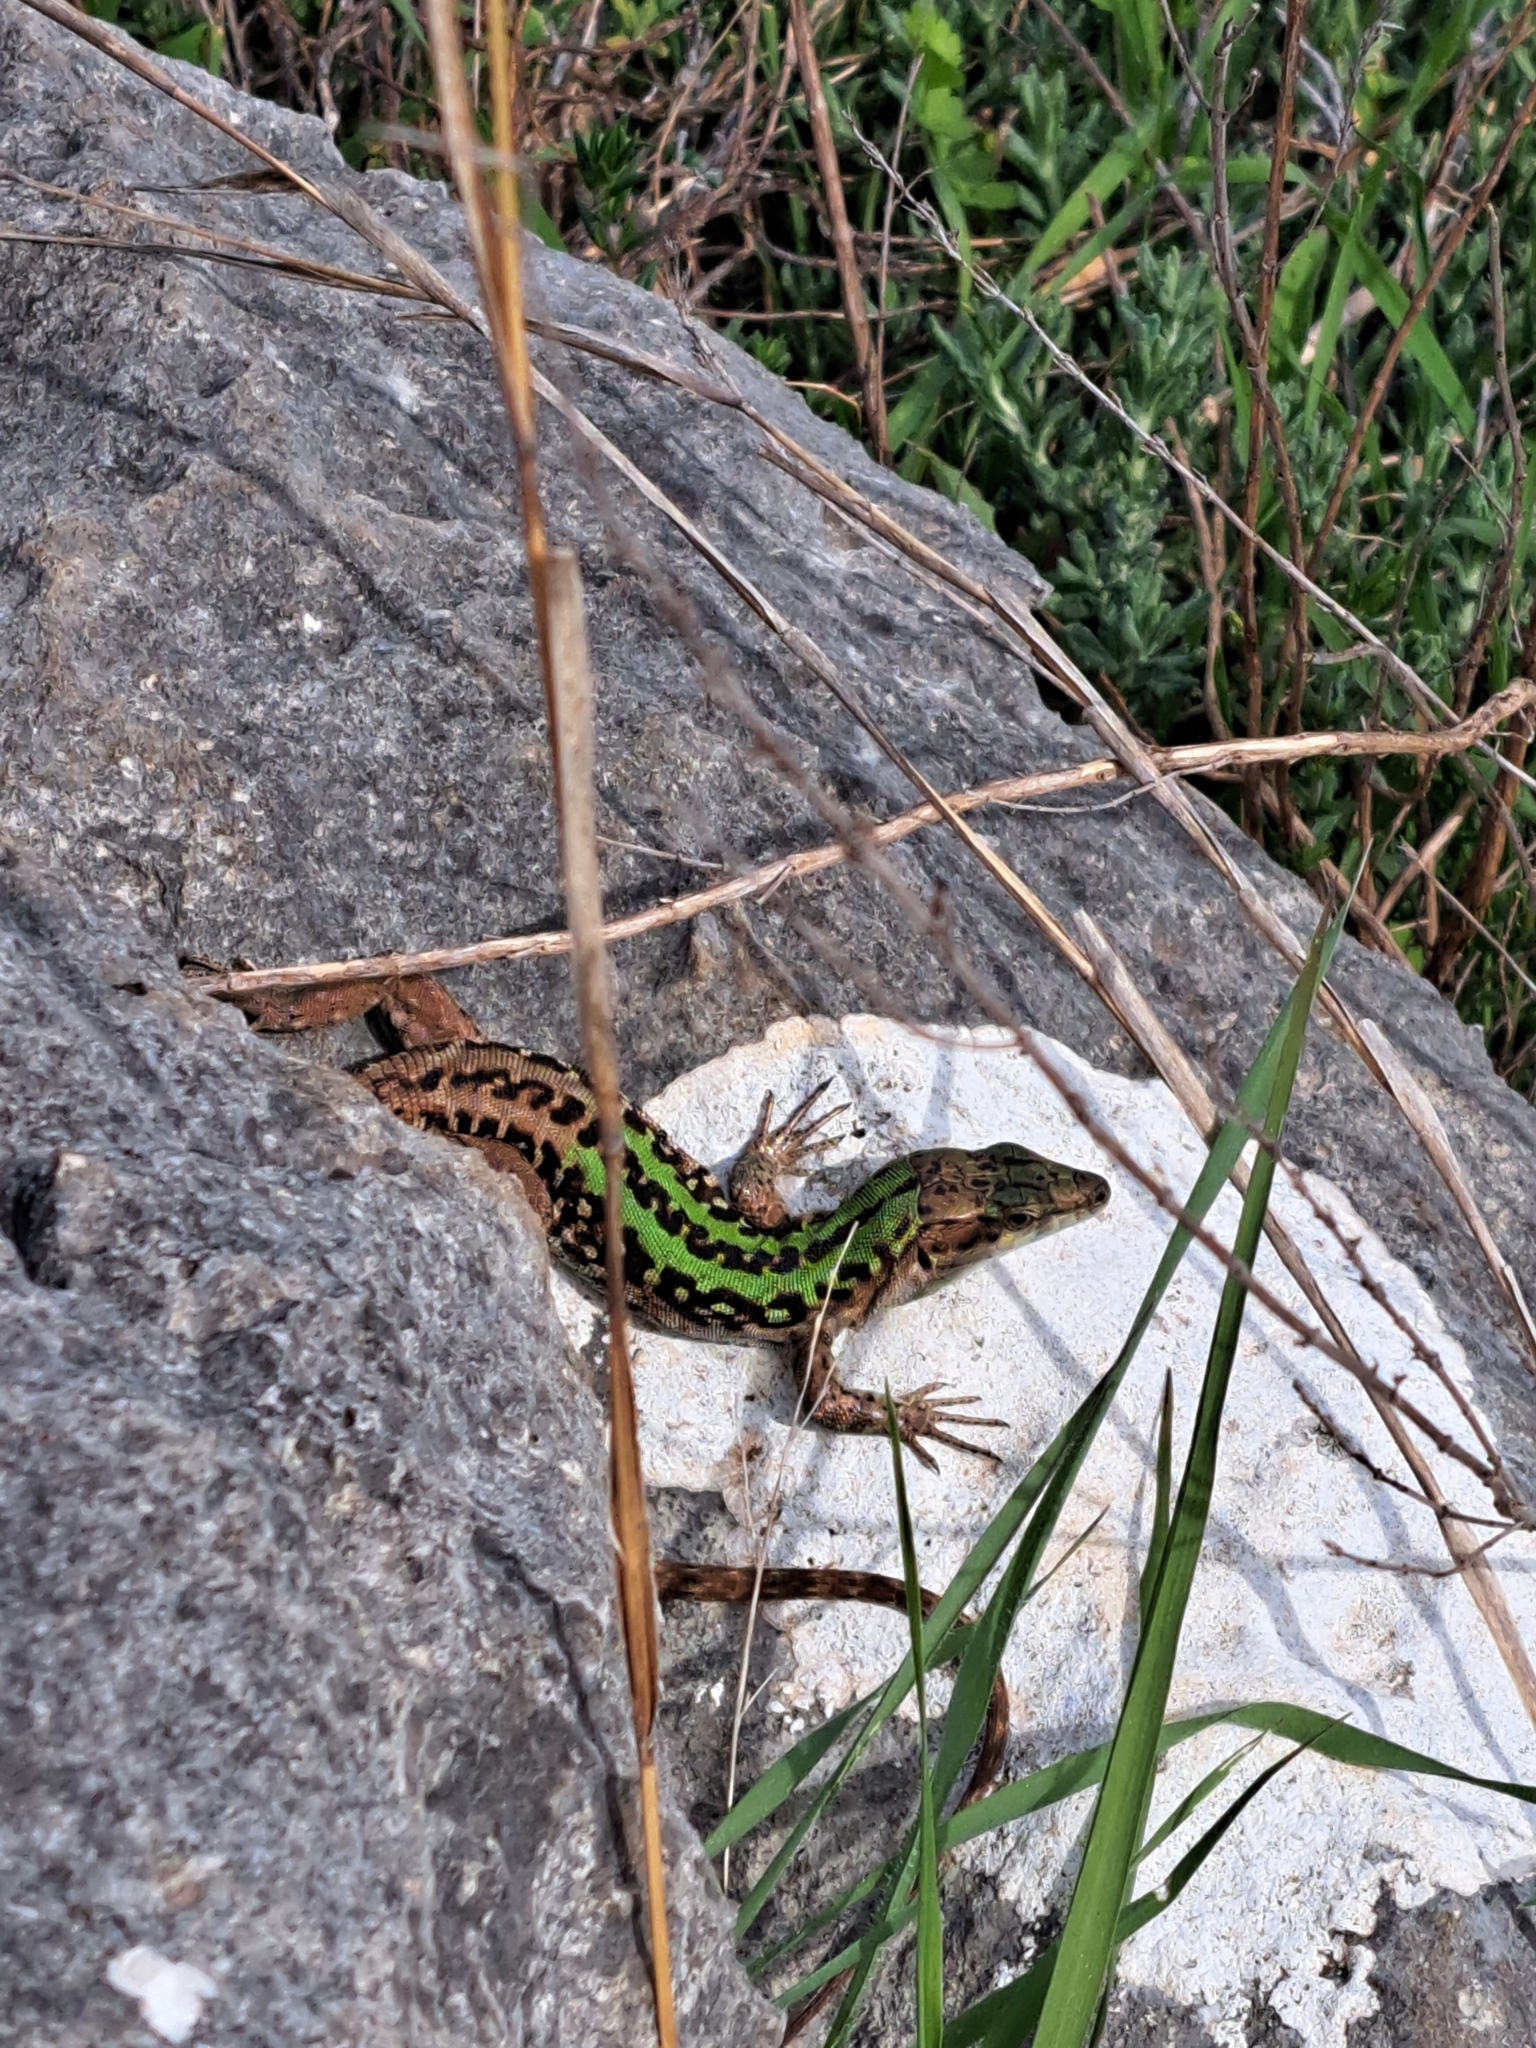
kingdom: Animalia
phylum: Chordata
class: Squamata
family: Lacertidae
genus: Podarcis
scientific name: Podarcis siculus
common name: Italian wall lizard
